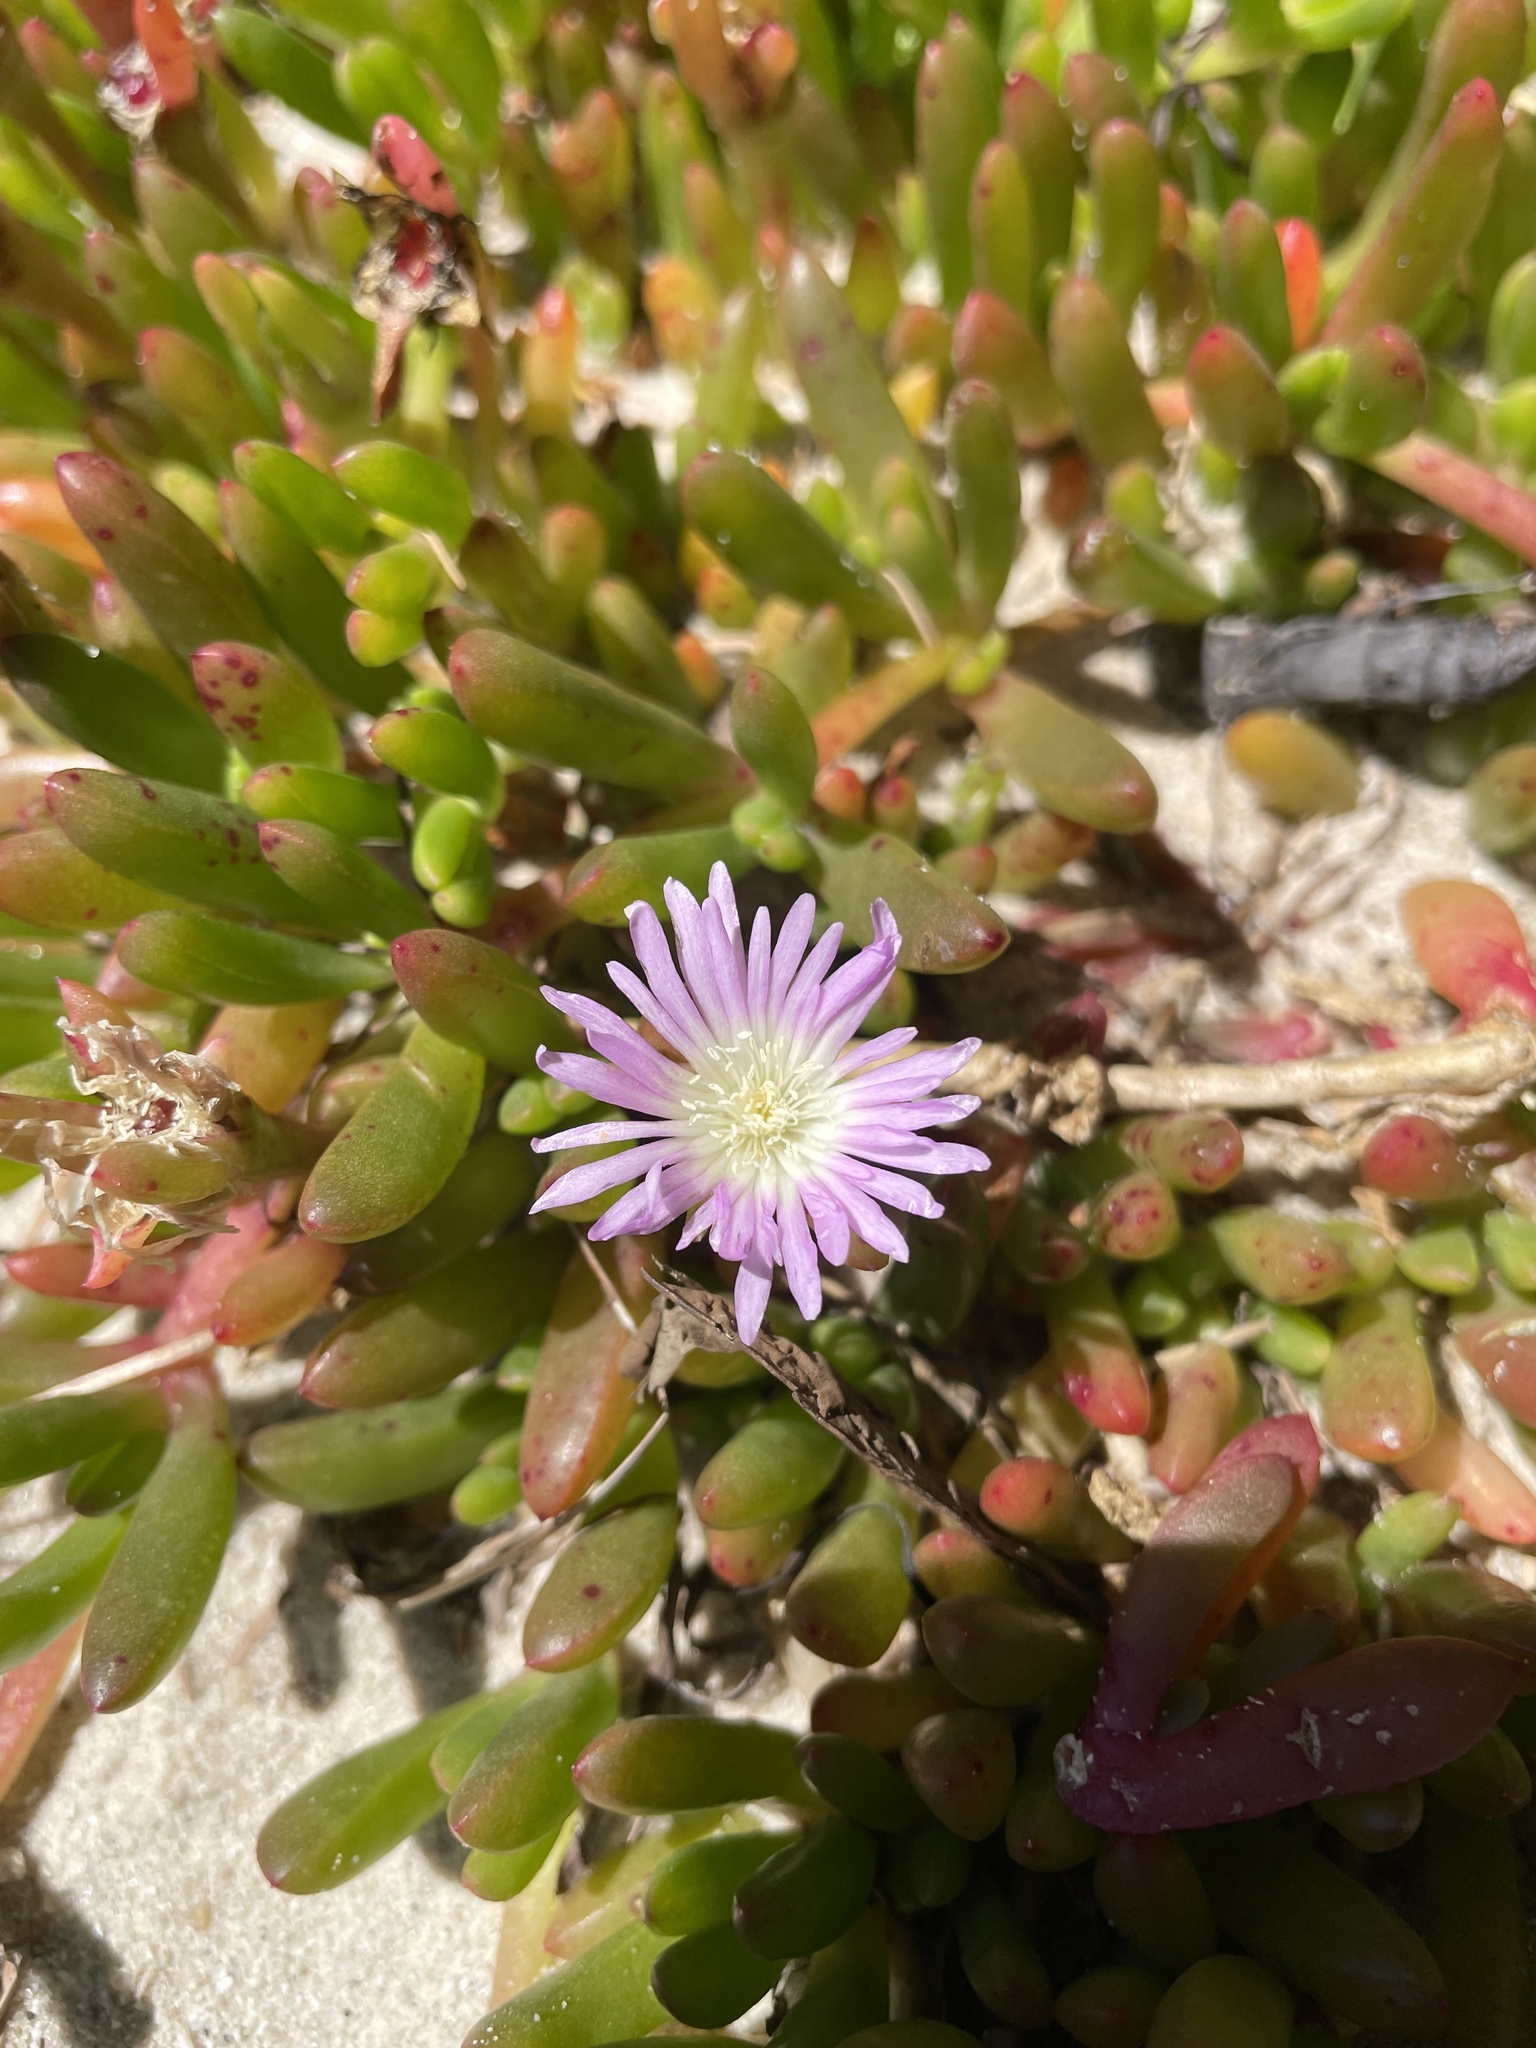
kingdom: Plantae
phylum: Tracheophyta
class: Magnoliopsida
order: Caryophyllales
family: Aizoaceae
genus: Disphyma
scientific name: Disphyma crassifolium
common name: Purple dewplant
